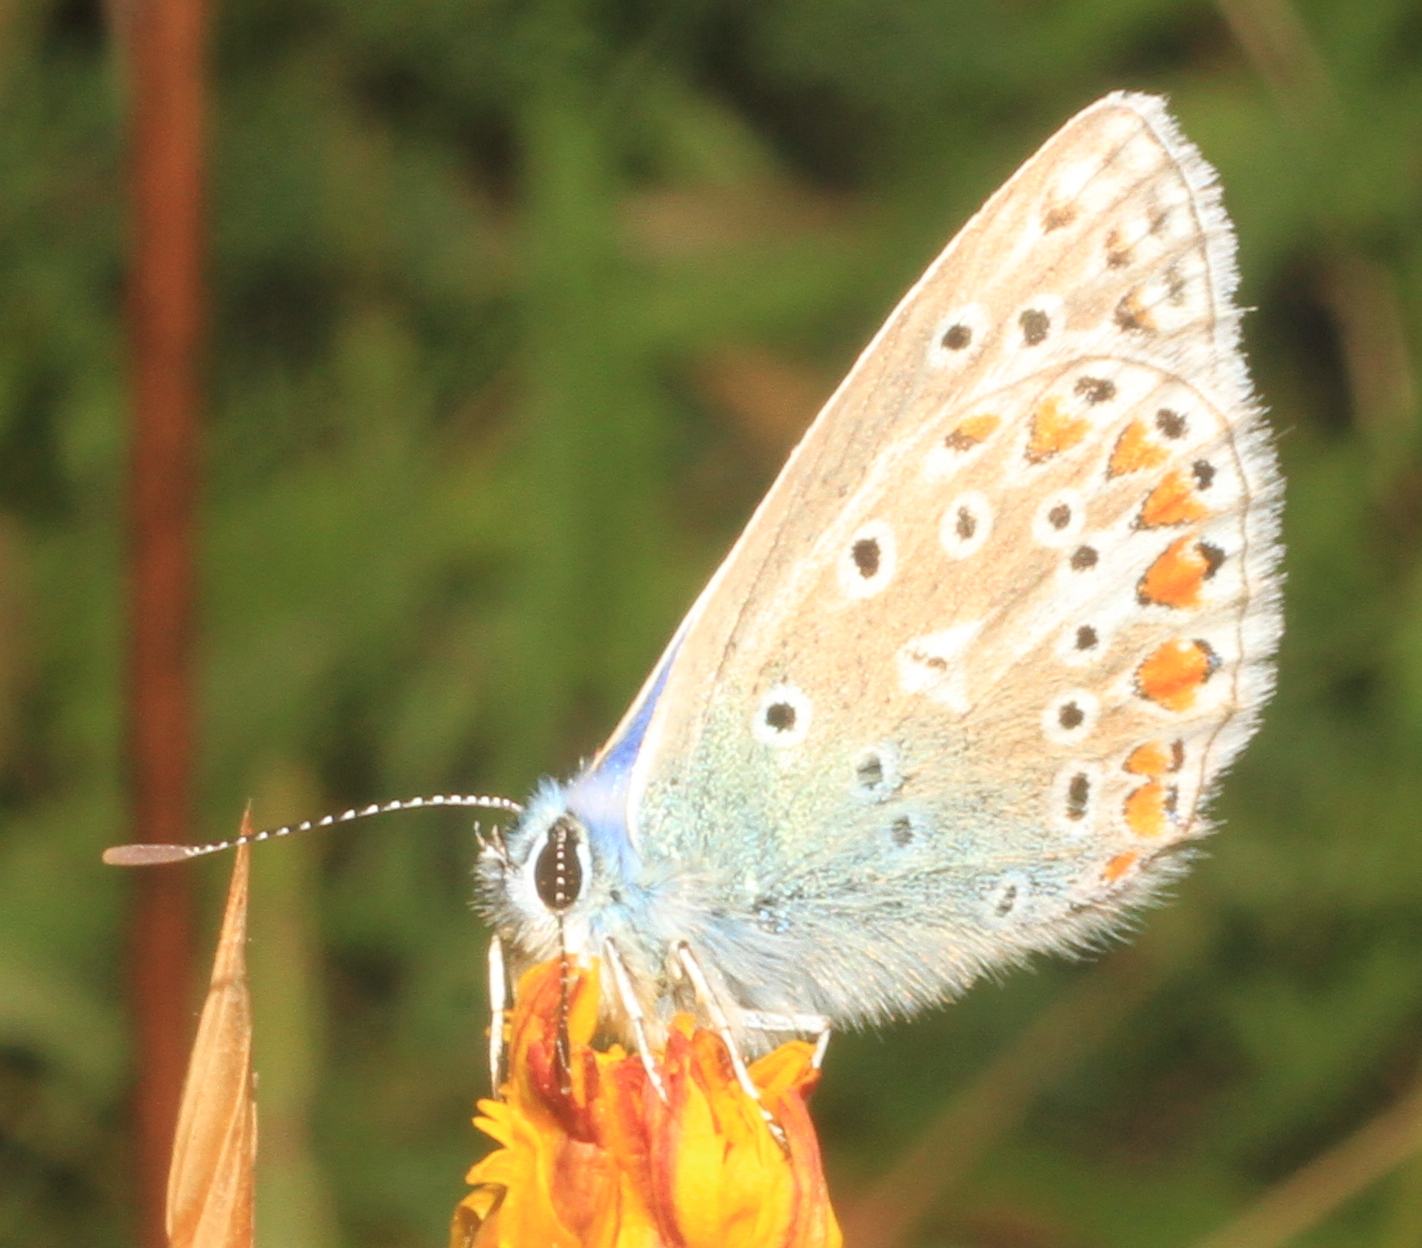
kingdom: Animalia
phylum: Arthropoda
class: Insecta
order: Lepidoptera
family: Lycaenidae
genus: Polyommatus
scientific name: Polyommatus icarus
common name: Common blue
